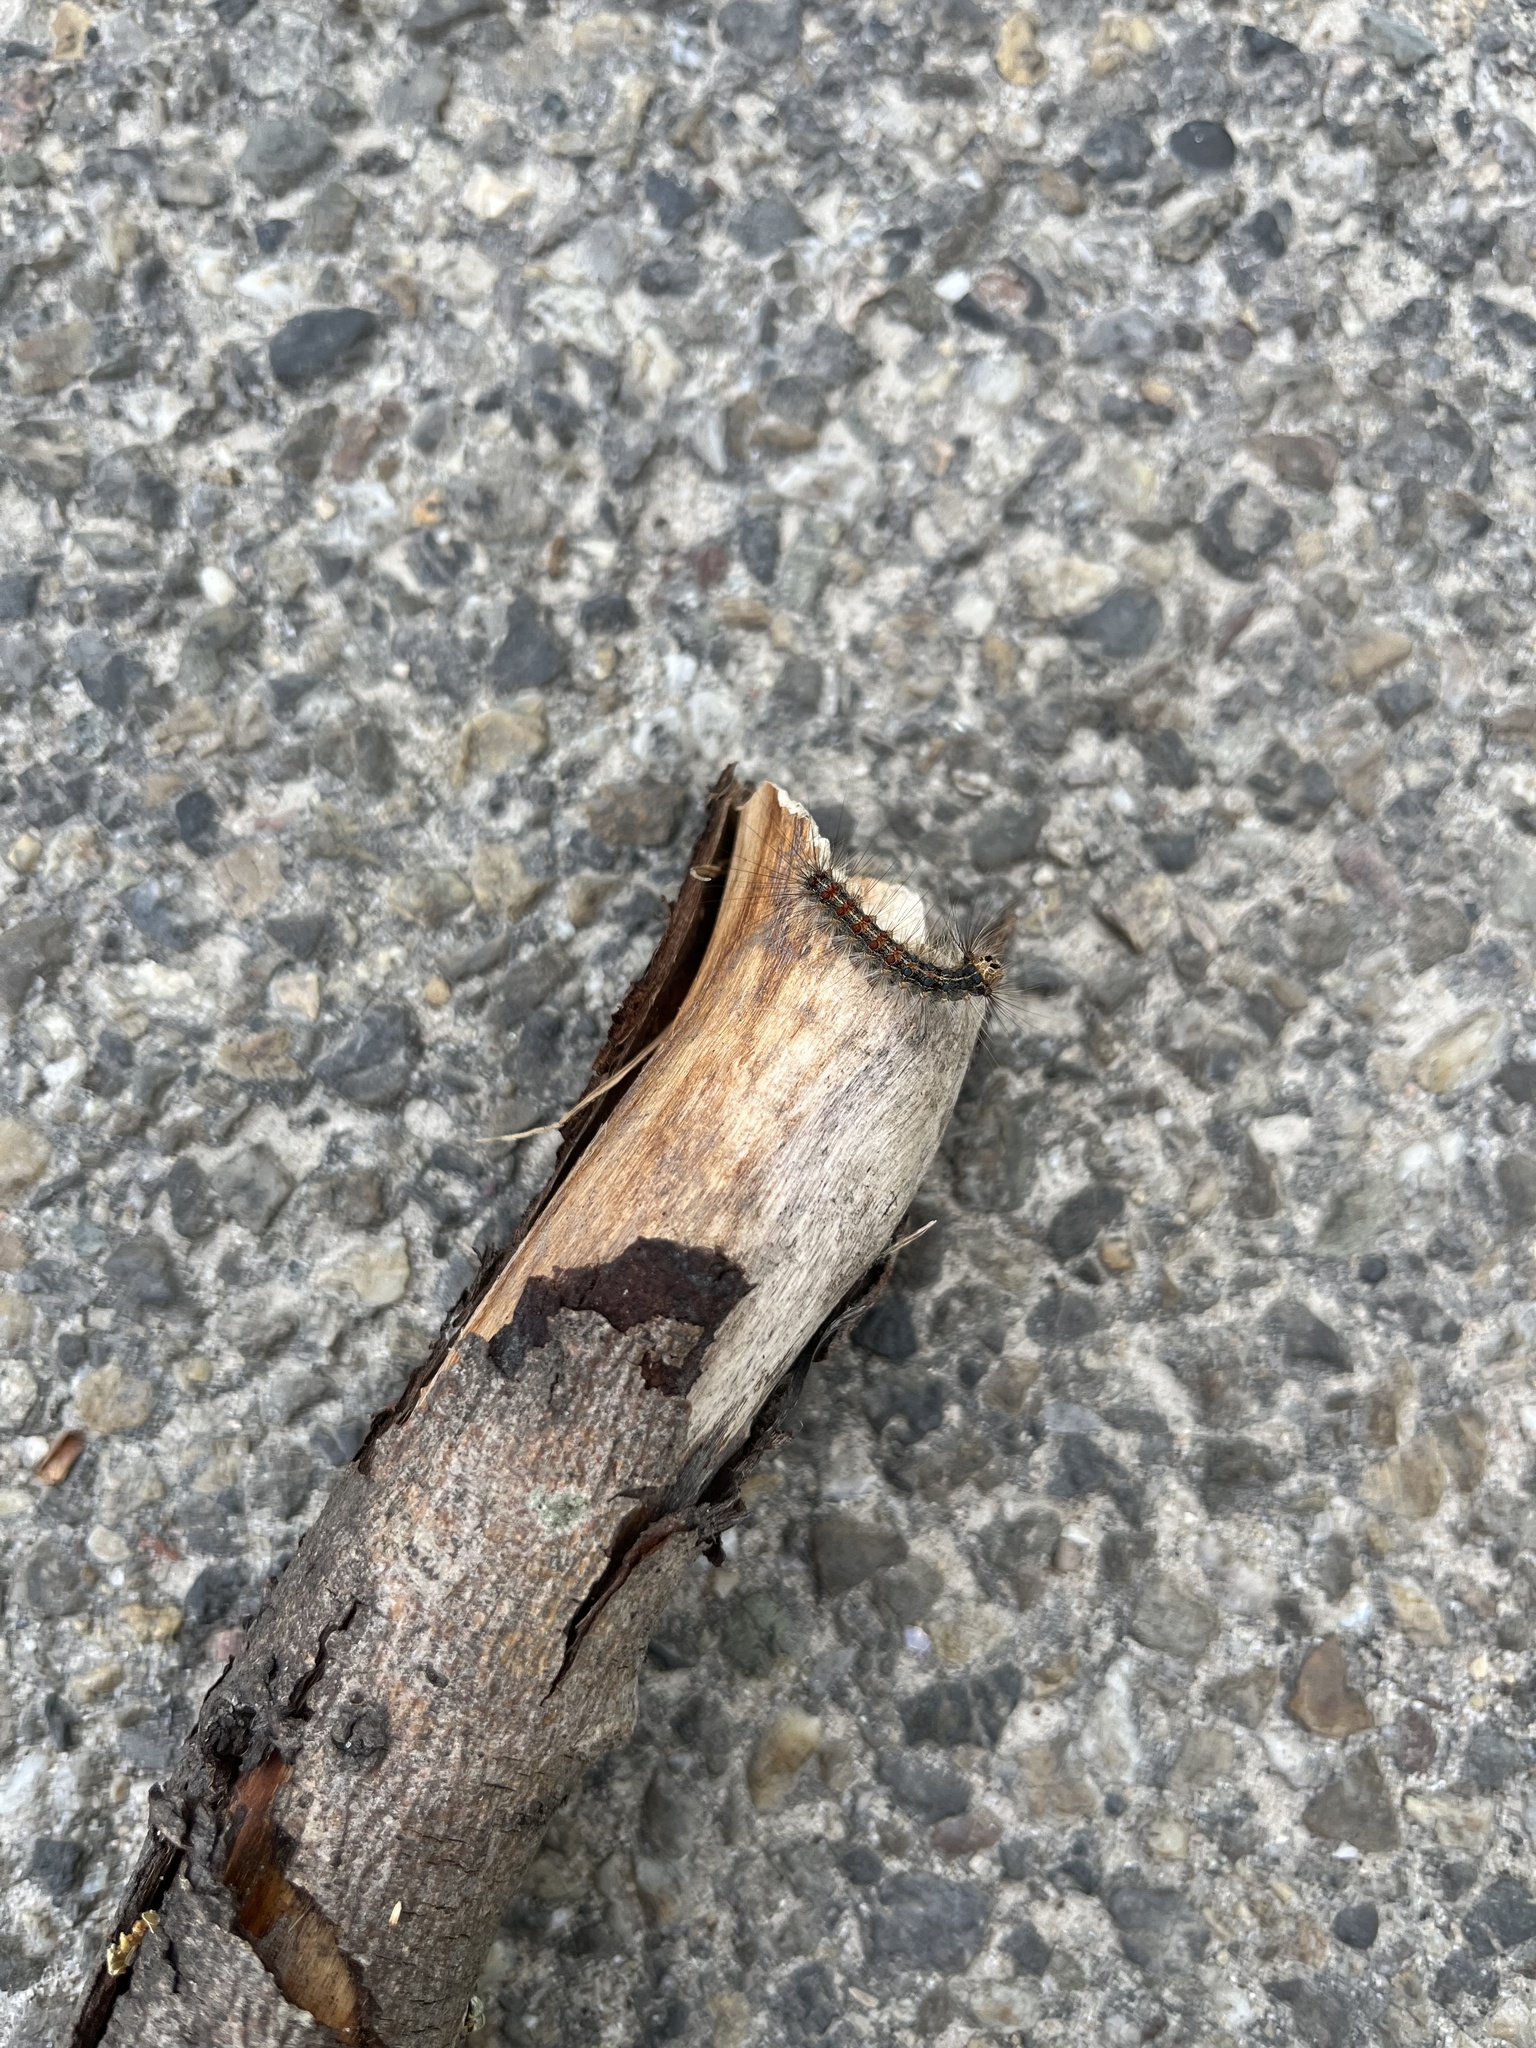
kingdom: Animalia
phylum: Arthropoda
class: Insecta
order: Lepidoptera
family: Erebidae
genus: Lymantria
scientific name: Lymantria dispar
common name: Gypsy moth
